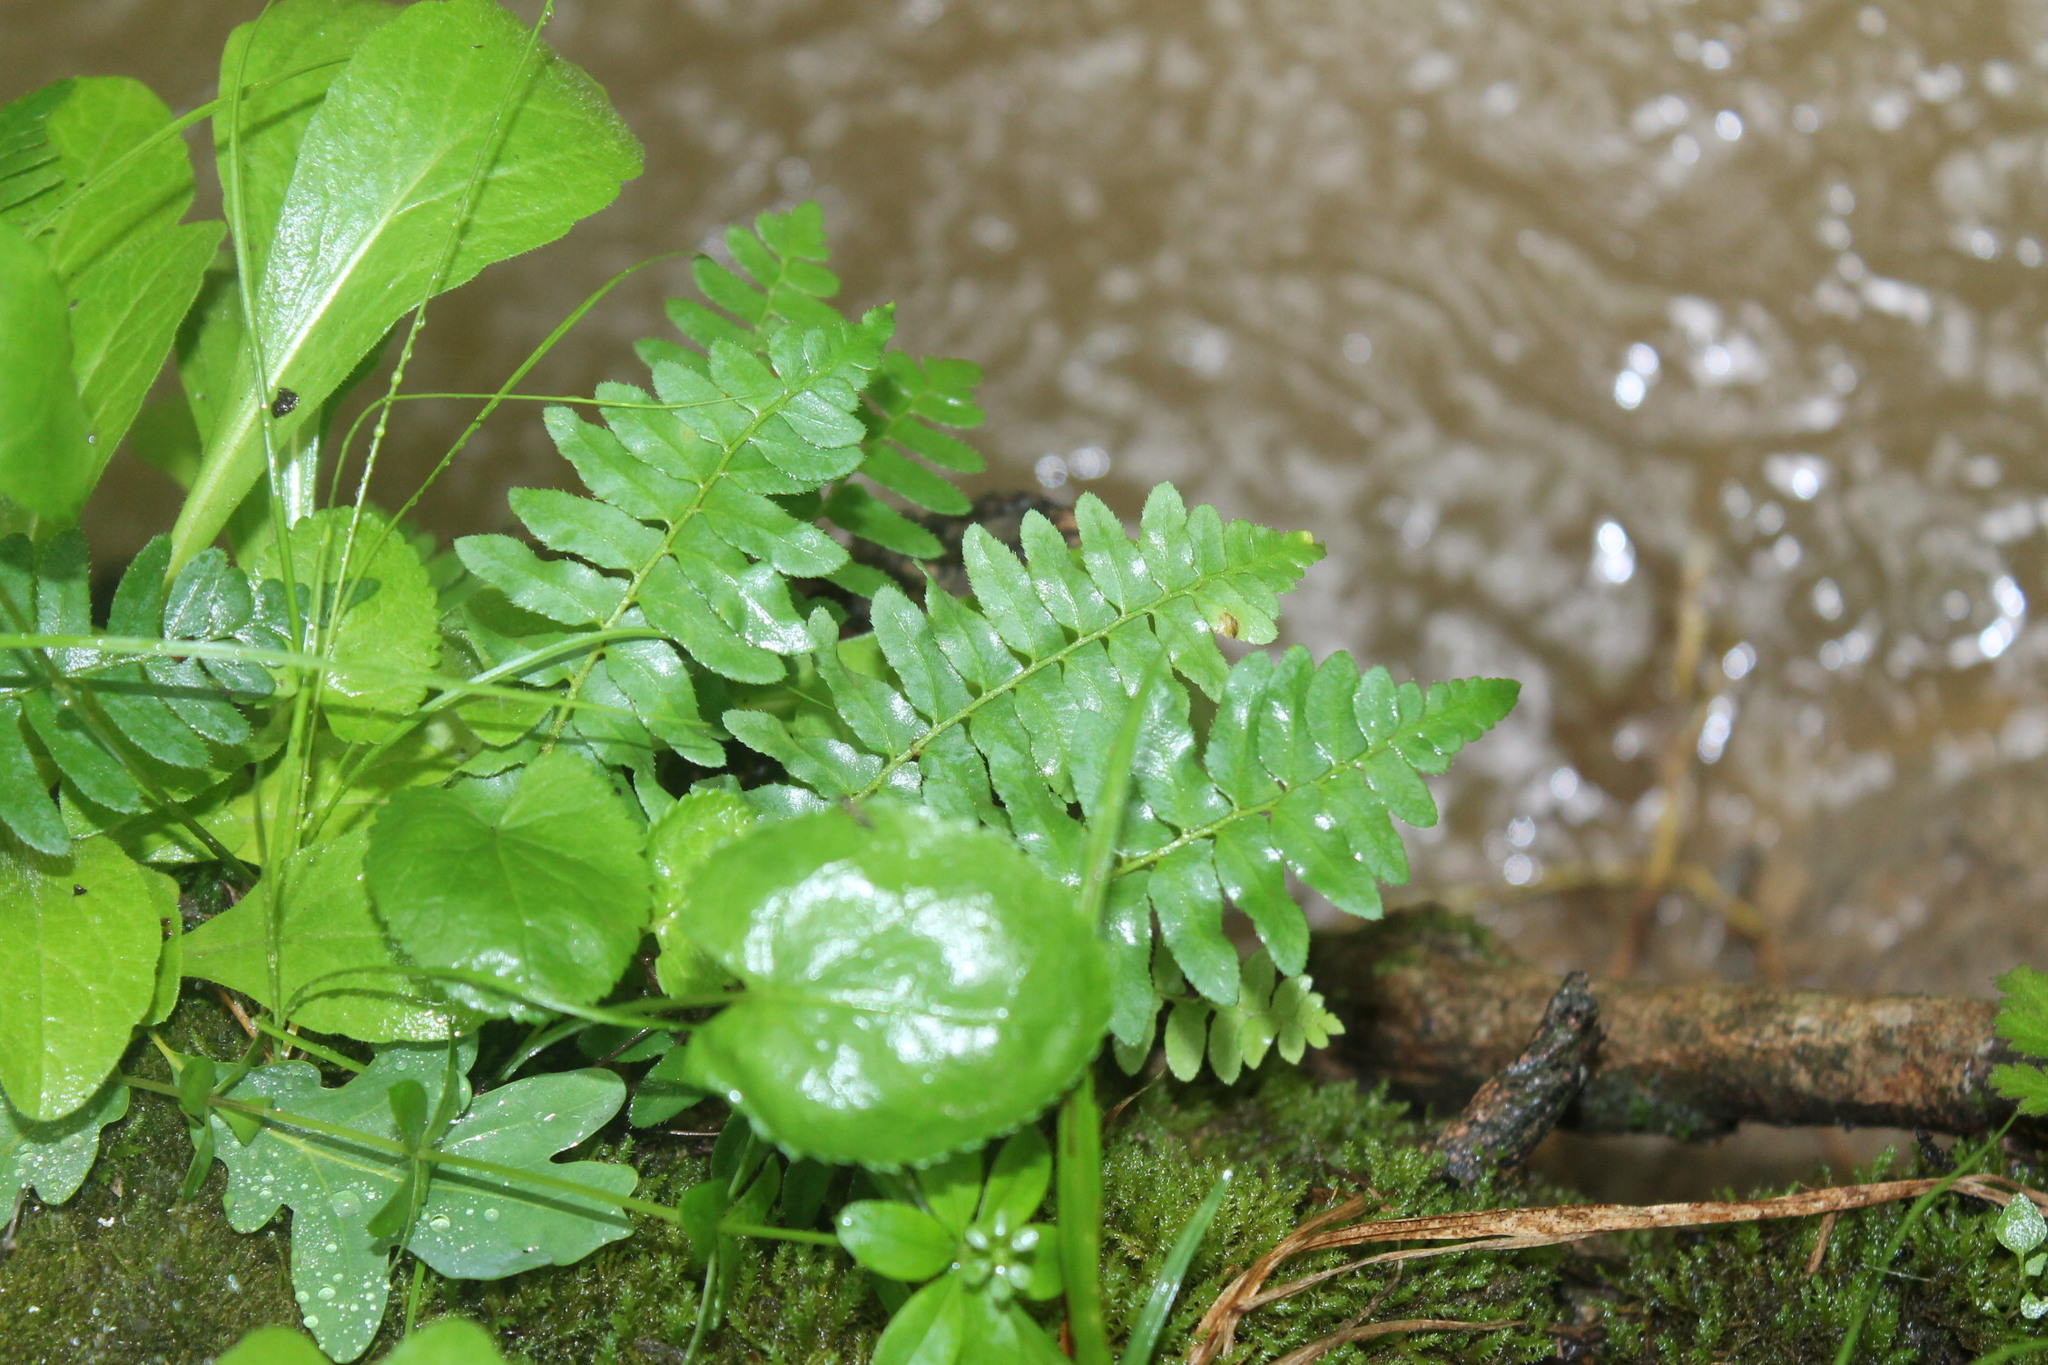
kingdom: Plantae
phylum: Tracheophyta
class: Polypodiopsida
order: Polypodiales
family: Dryopteridaceae
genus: Polystichum
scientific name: Polystichum acrostichoides
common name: Christmas fern
